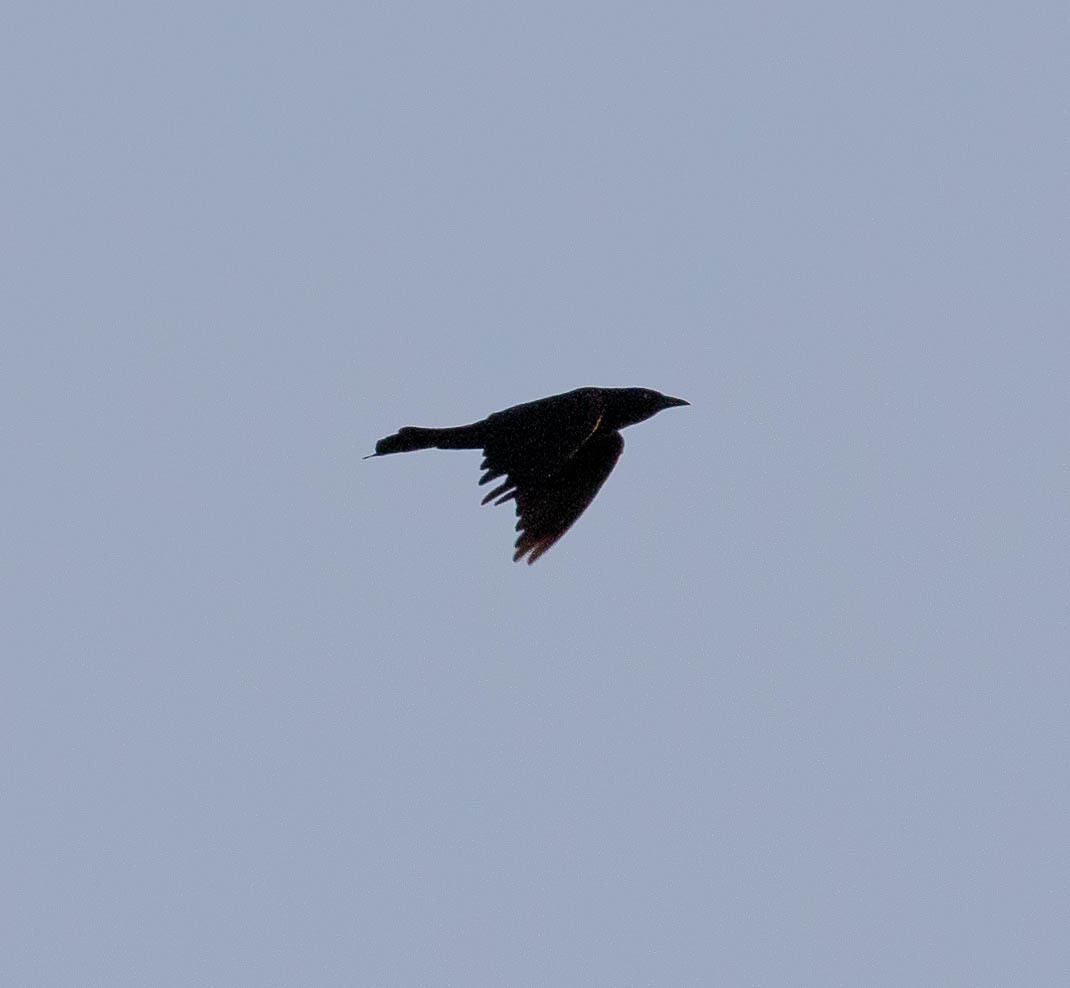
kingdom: Animalia
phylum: Chordata
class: Aves
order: Passeriformes
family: Icteridae
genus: Quiscalus
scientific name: Quiscalus quiscula
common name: Common grackle
